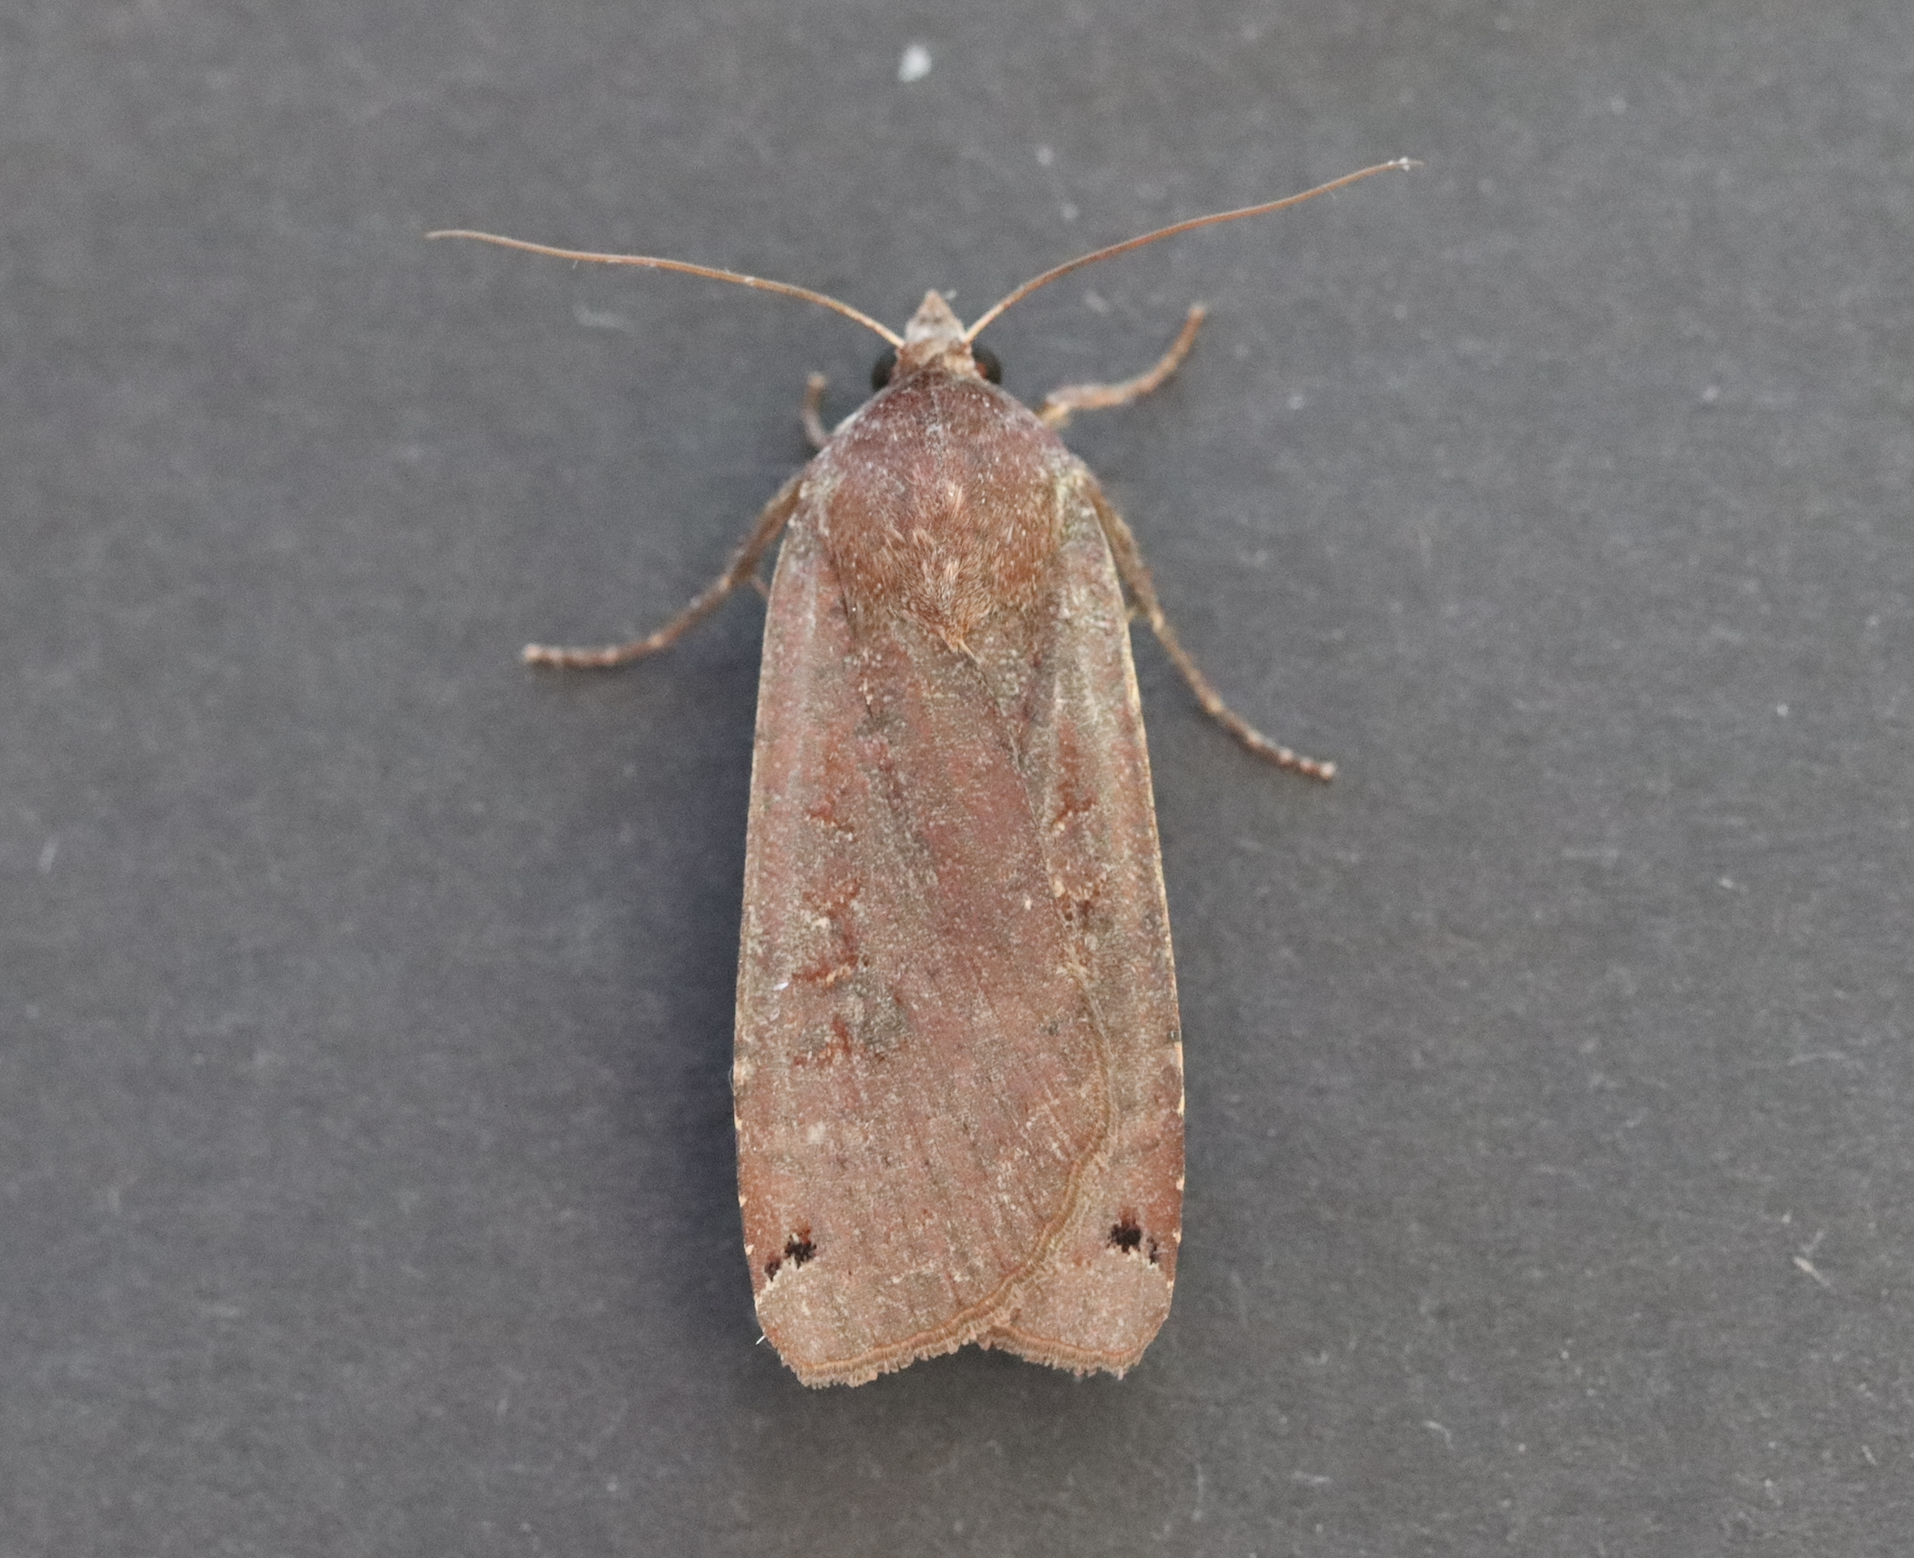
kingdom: Animalia
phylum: Arthropoda
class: Insecta
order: Lepidoptera
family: Noctuidae
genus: Noctua
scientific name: Noctua pronuba
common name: Large yellow underwing
